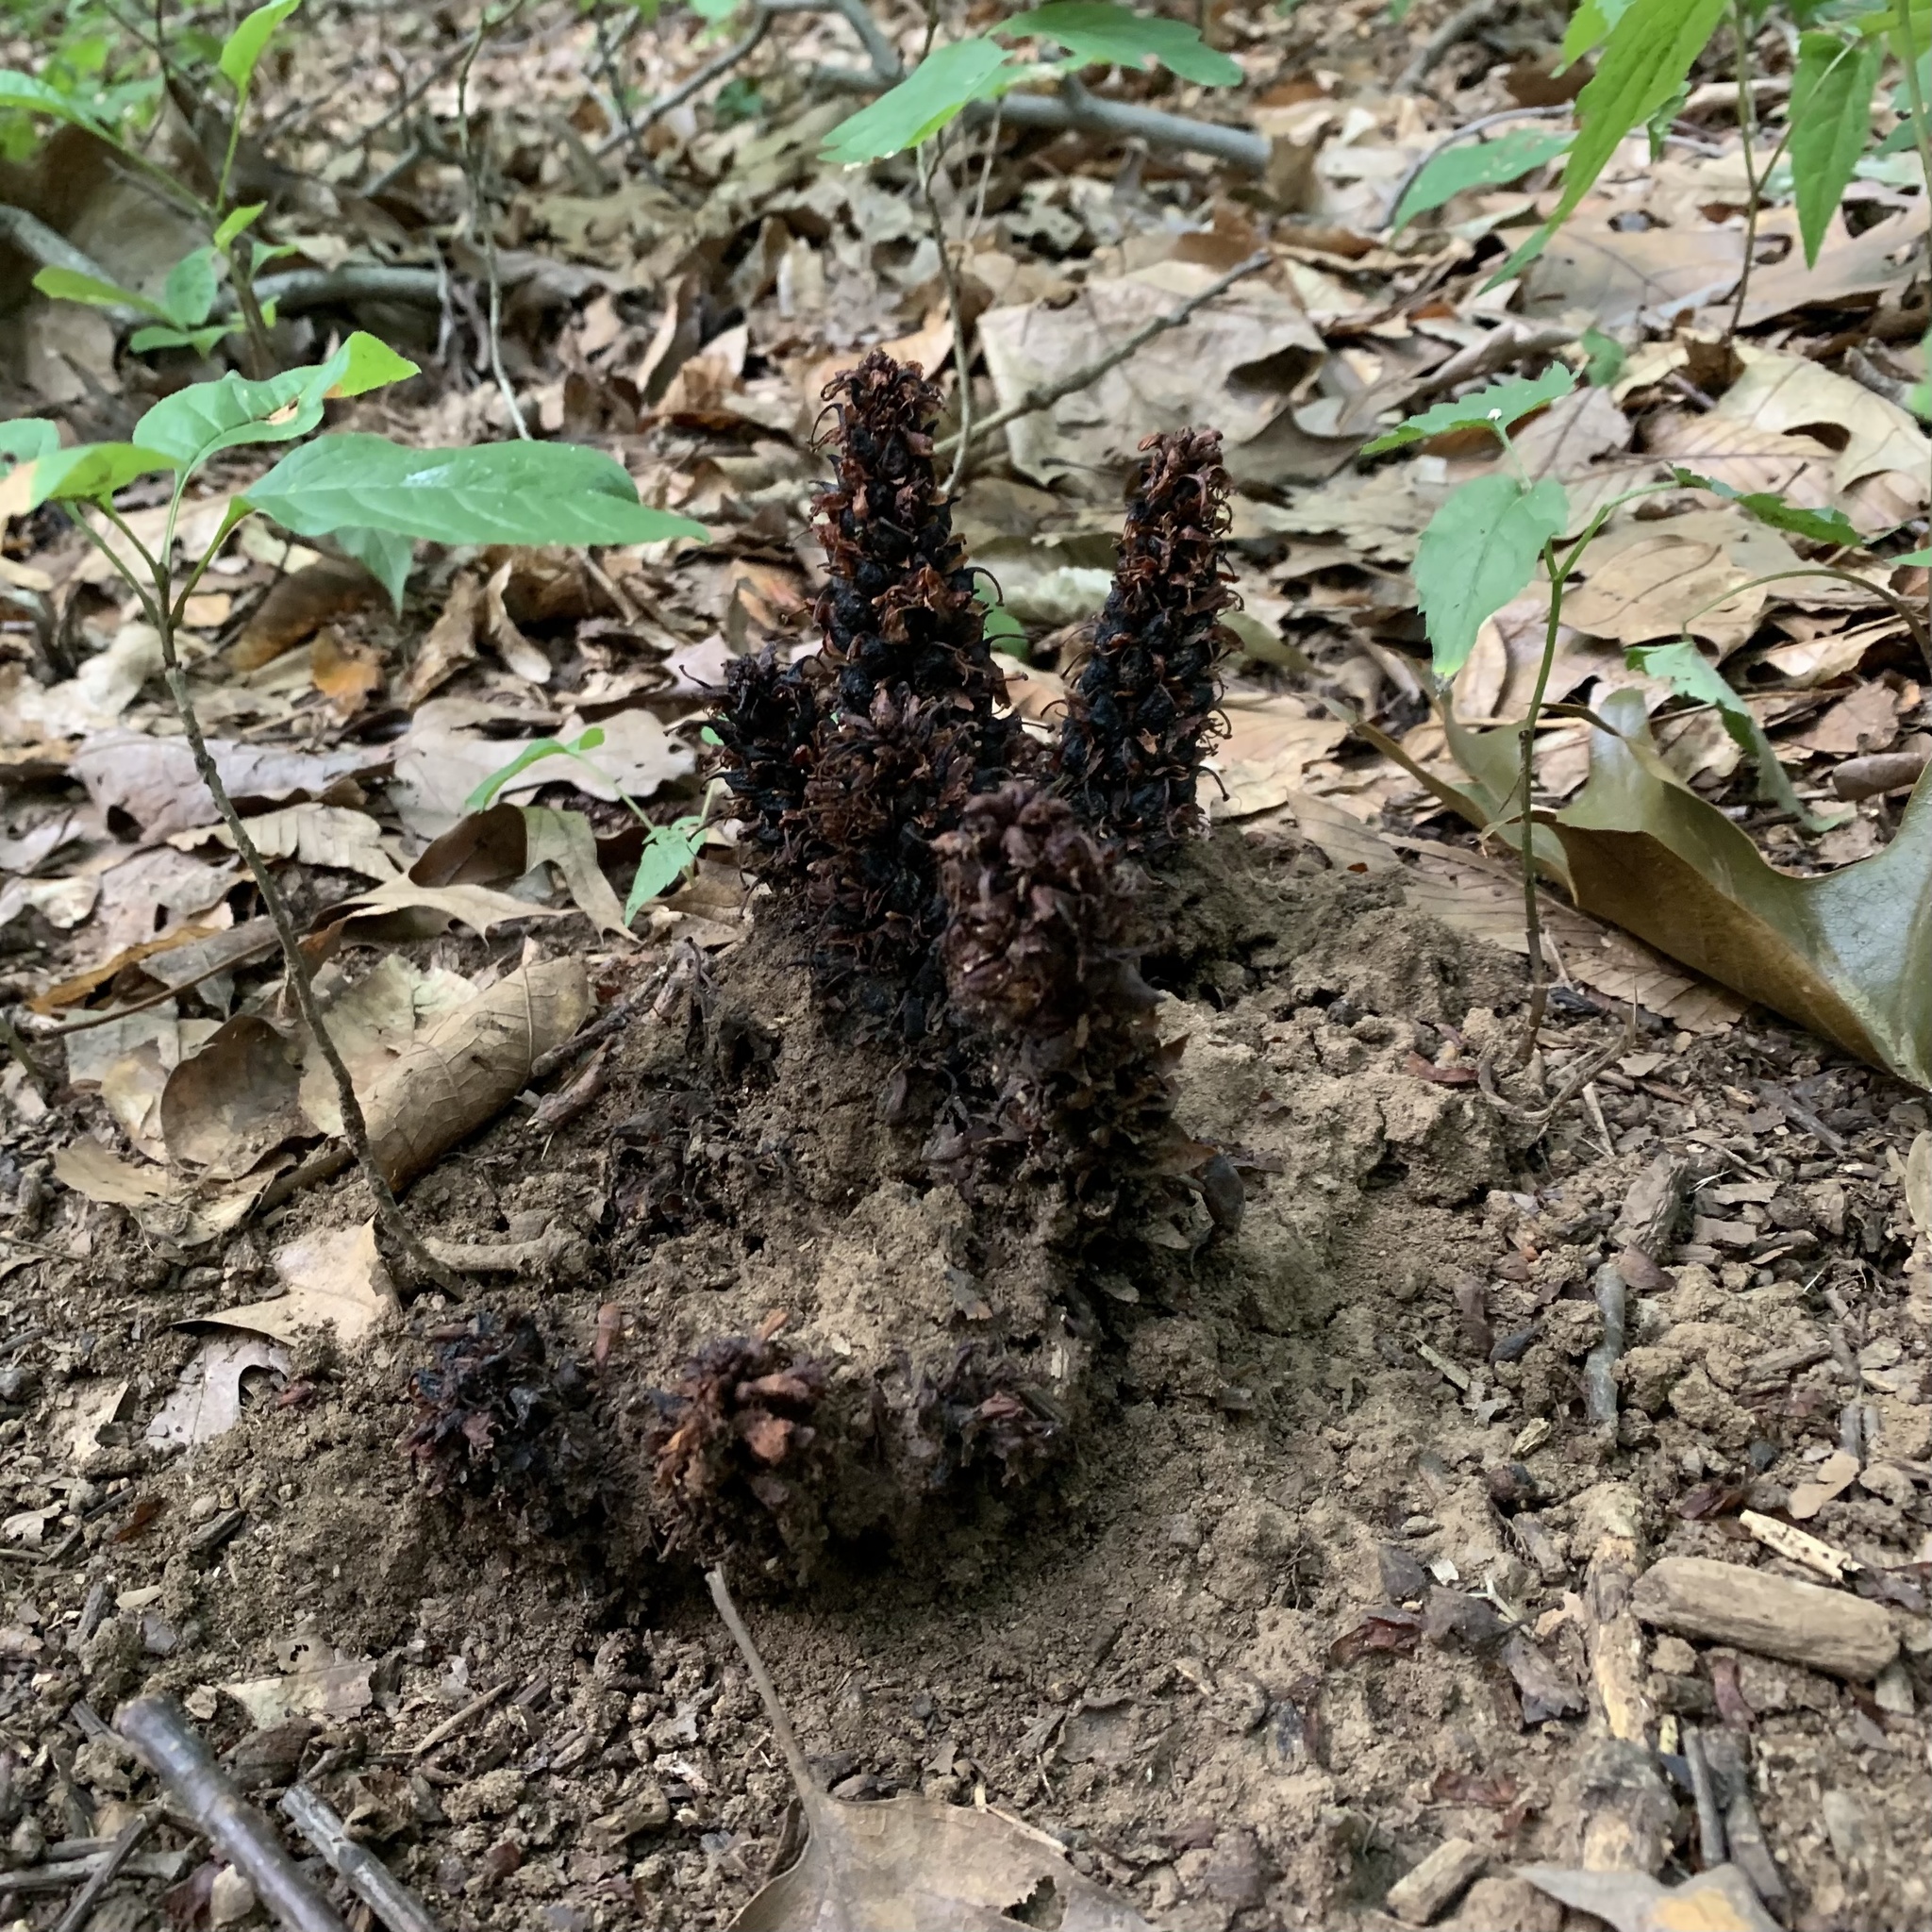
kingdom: Plantae
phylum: Tracheophyta
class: Magnoliopsida
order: Lamiales
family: Orobanchaceae
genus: Conopholis
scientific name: Conopholis americana
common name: American cancer-root
